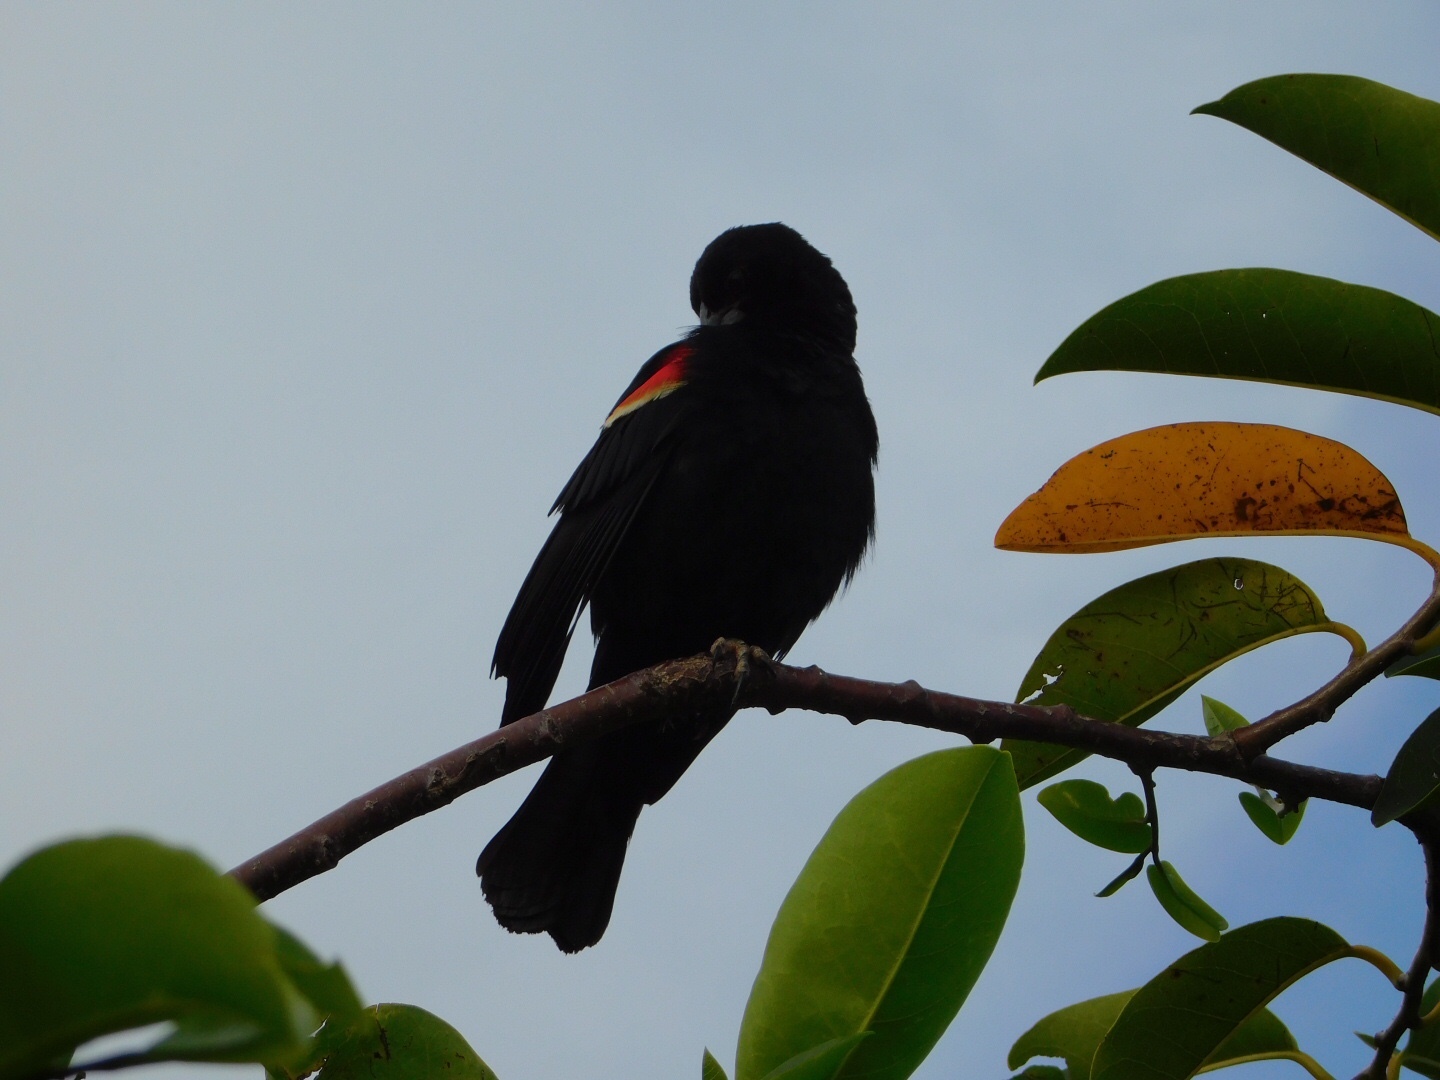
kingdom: Animalia
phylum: Chordata
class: Aves
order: Passeriformes
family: Icteridae
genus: Agelaius
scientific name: Agelaius phoeniceus
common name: Red-winged blackbird
